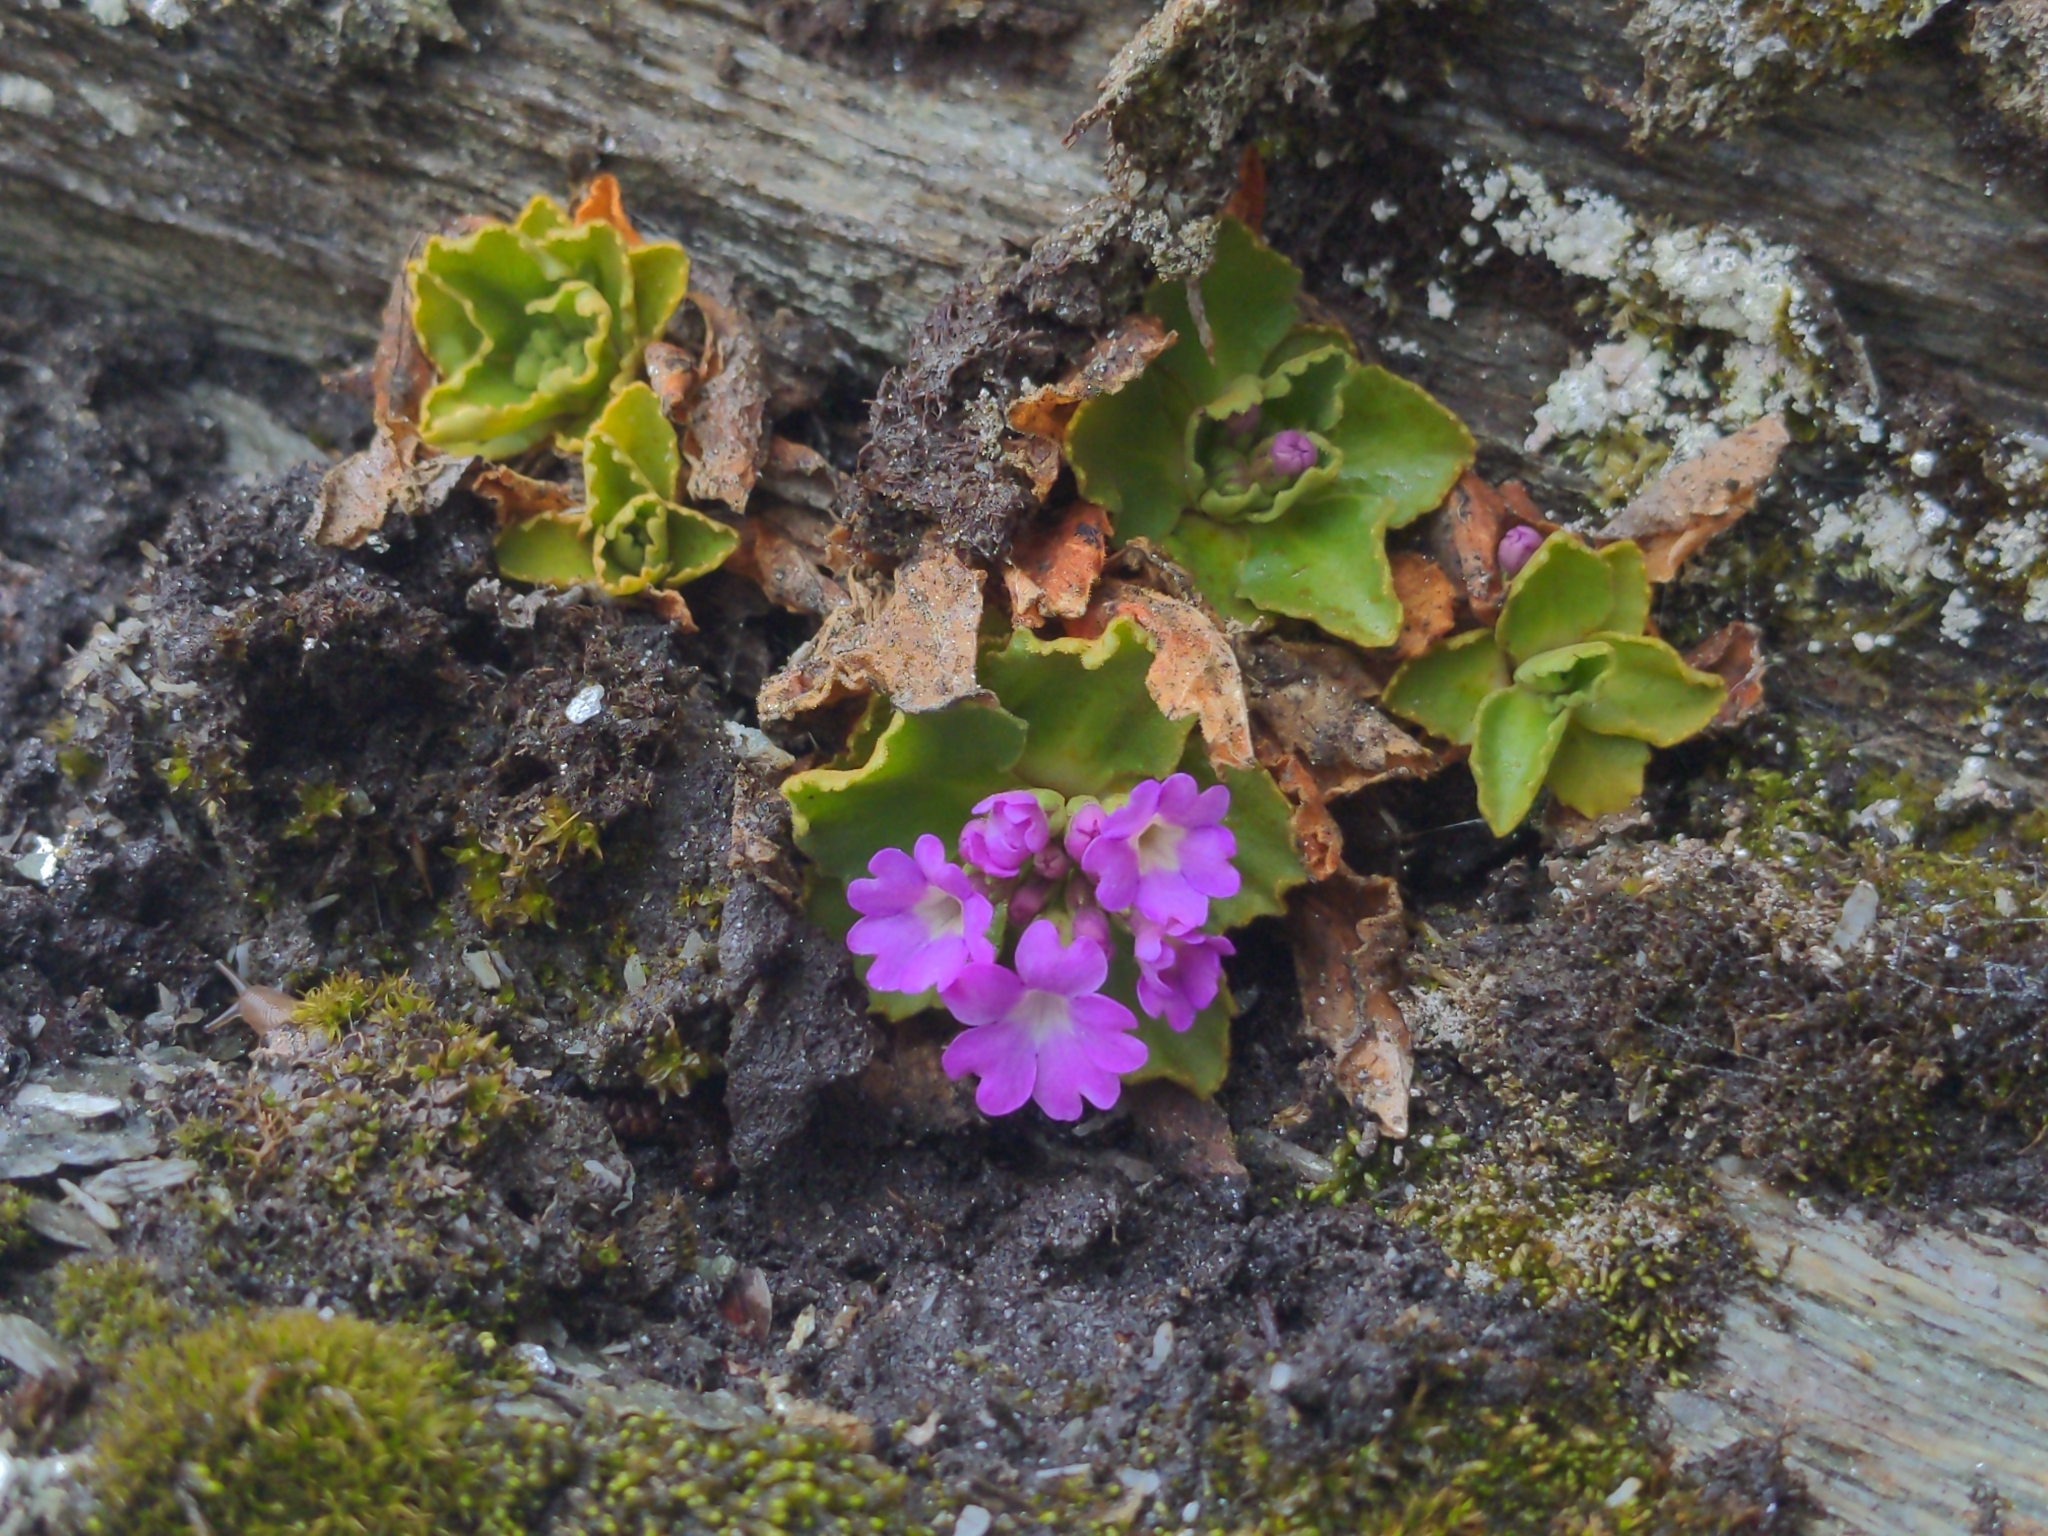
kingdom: Plantae
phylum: Tracheophyta
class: Magnoliopsida
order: Ericales
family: Primulaceae
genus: Primula
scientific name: Primula hirsuta
